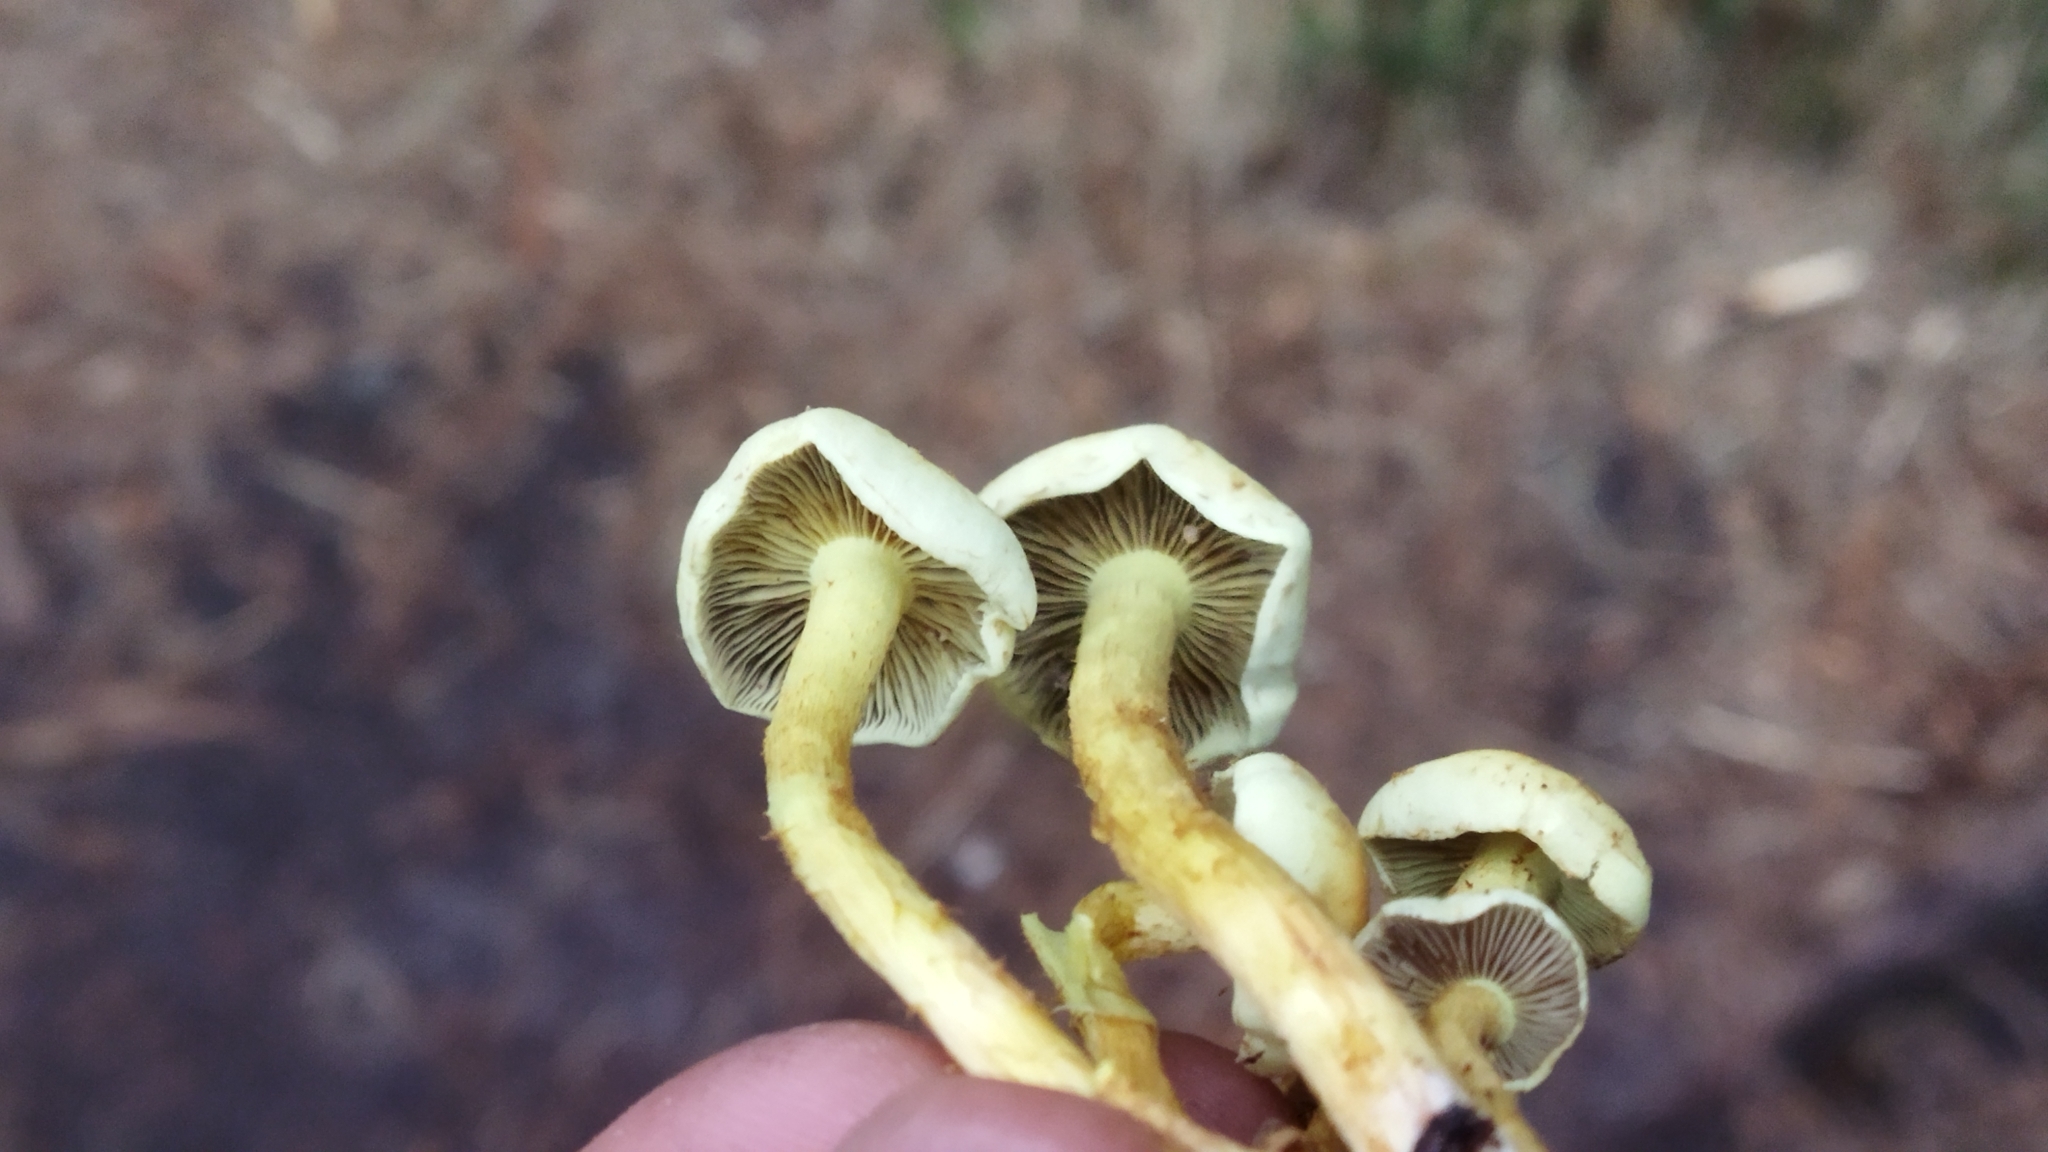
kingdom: Fungi
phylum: Basidiomycota
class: Agaricomycetes
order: Agaricales
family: Strophariaceae
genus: Hypholoma
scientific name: Hypholoma fasciculare
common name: Sulphur tuft
